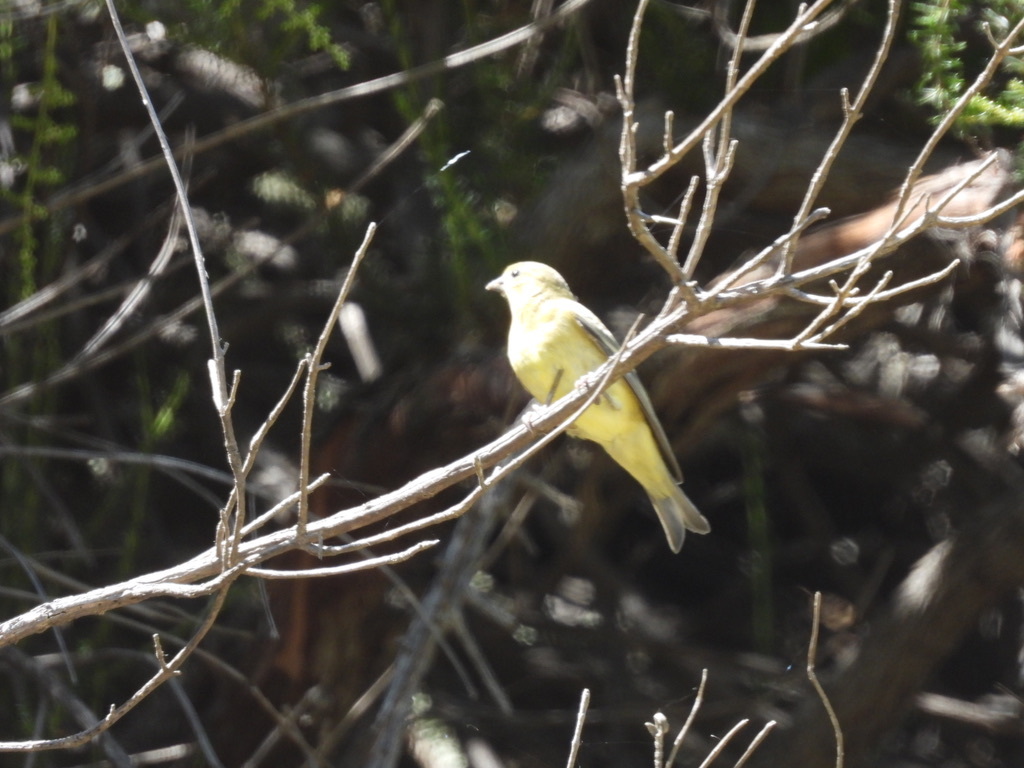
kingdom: Animalia
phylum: Chordata
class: Aves
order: Passeriformes
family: Fringillidae
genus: Spinus
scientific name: Spinus psaltria
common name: Lesser goldfinch
